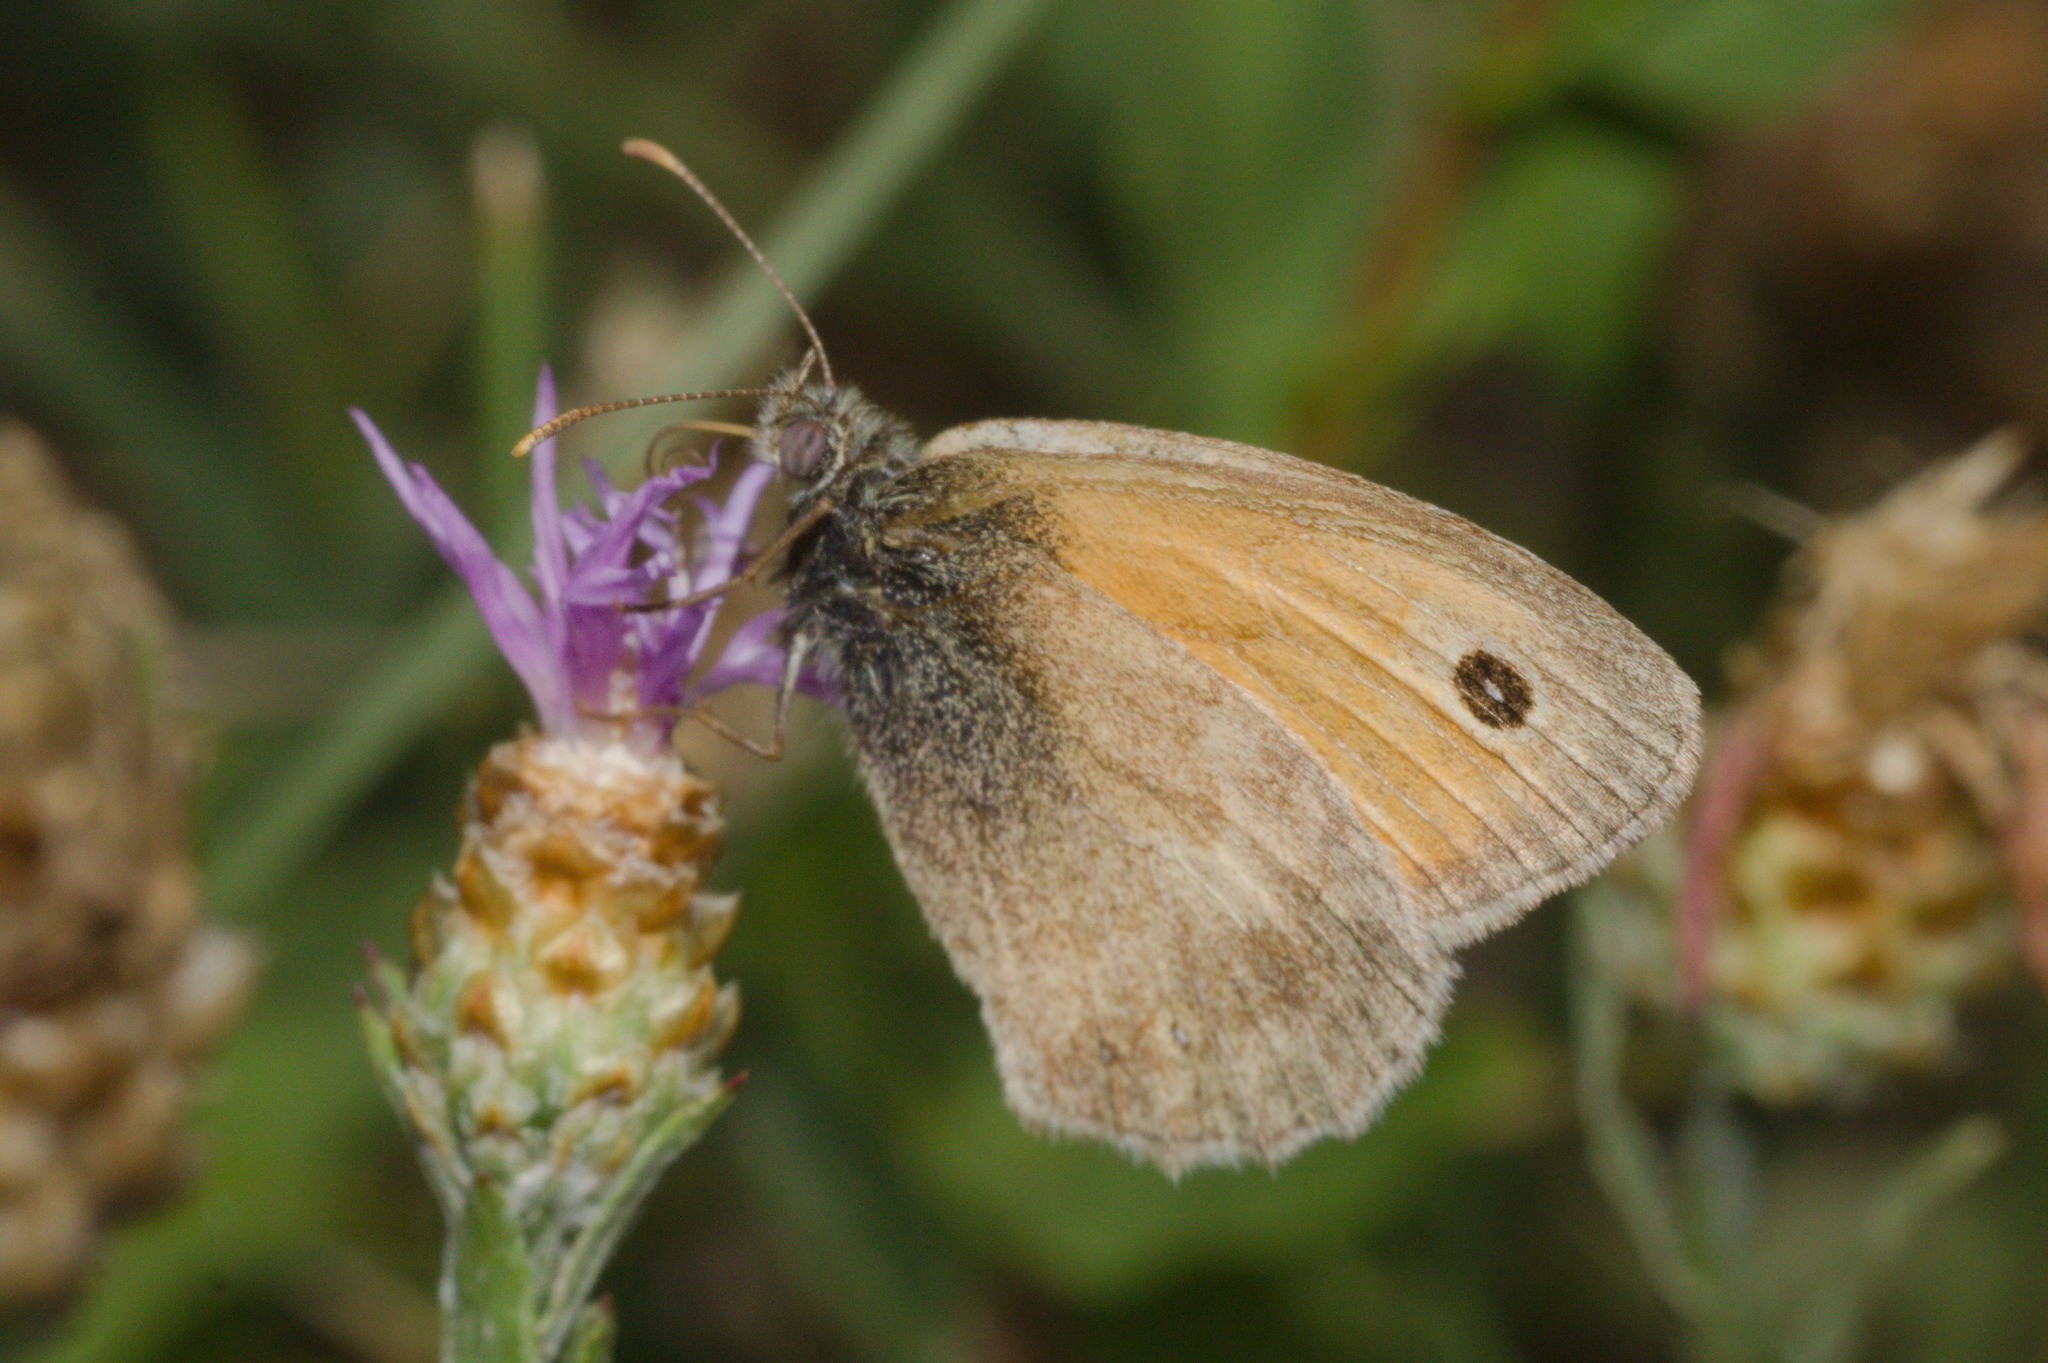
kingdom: Animalia
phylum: Arthropoda
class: Insecta
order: Lepidoptera
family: Nymphalidae
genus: Coenonympha
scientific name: Coenonympha pamphilus
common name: Small heath
